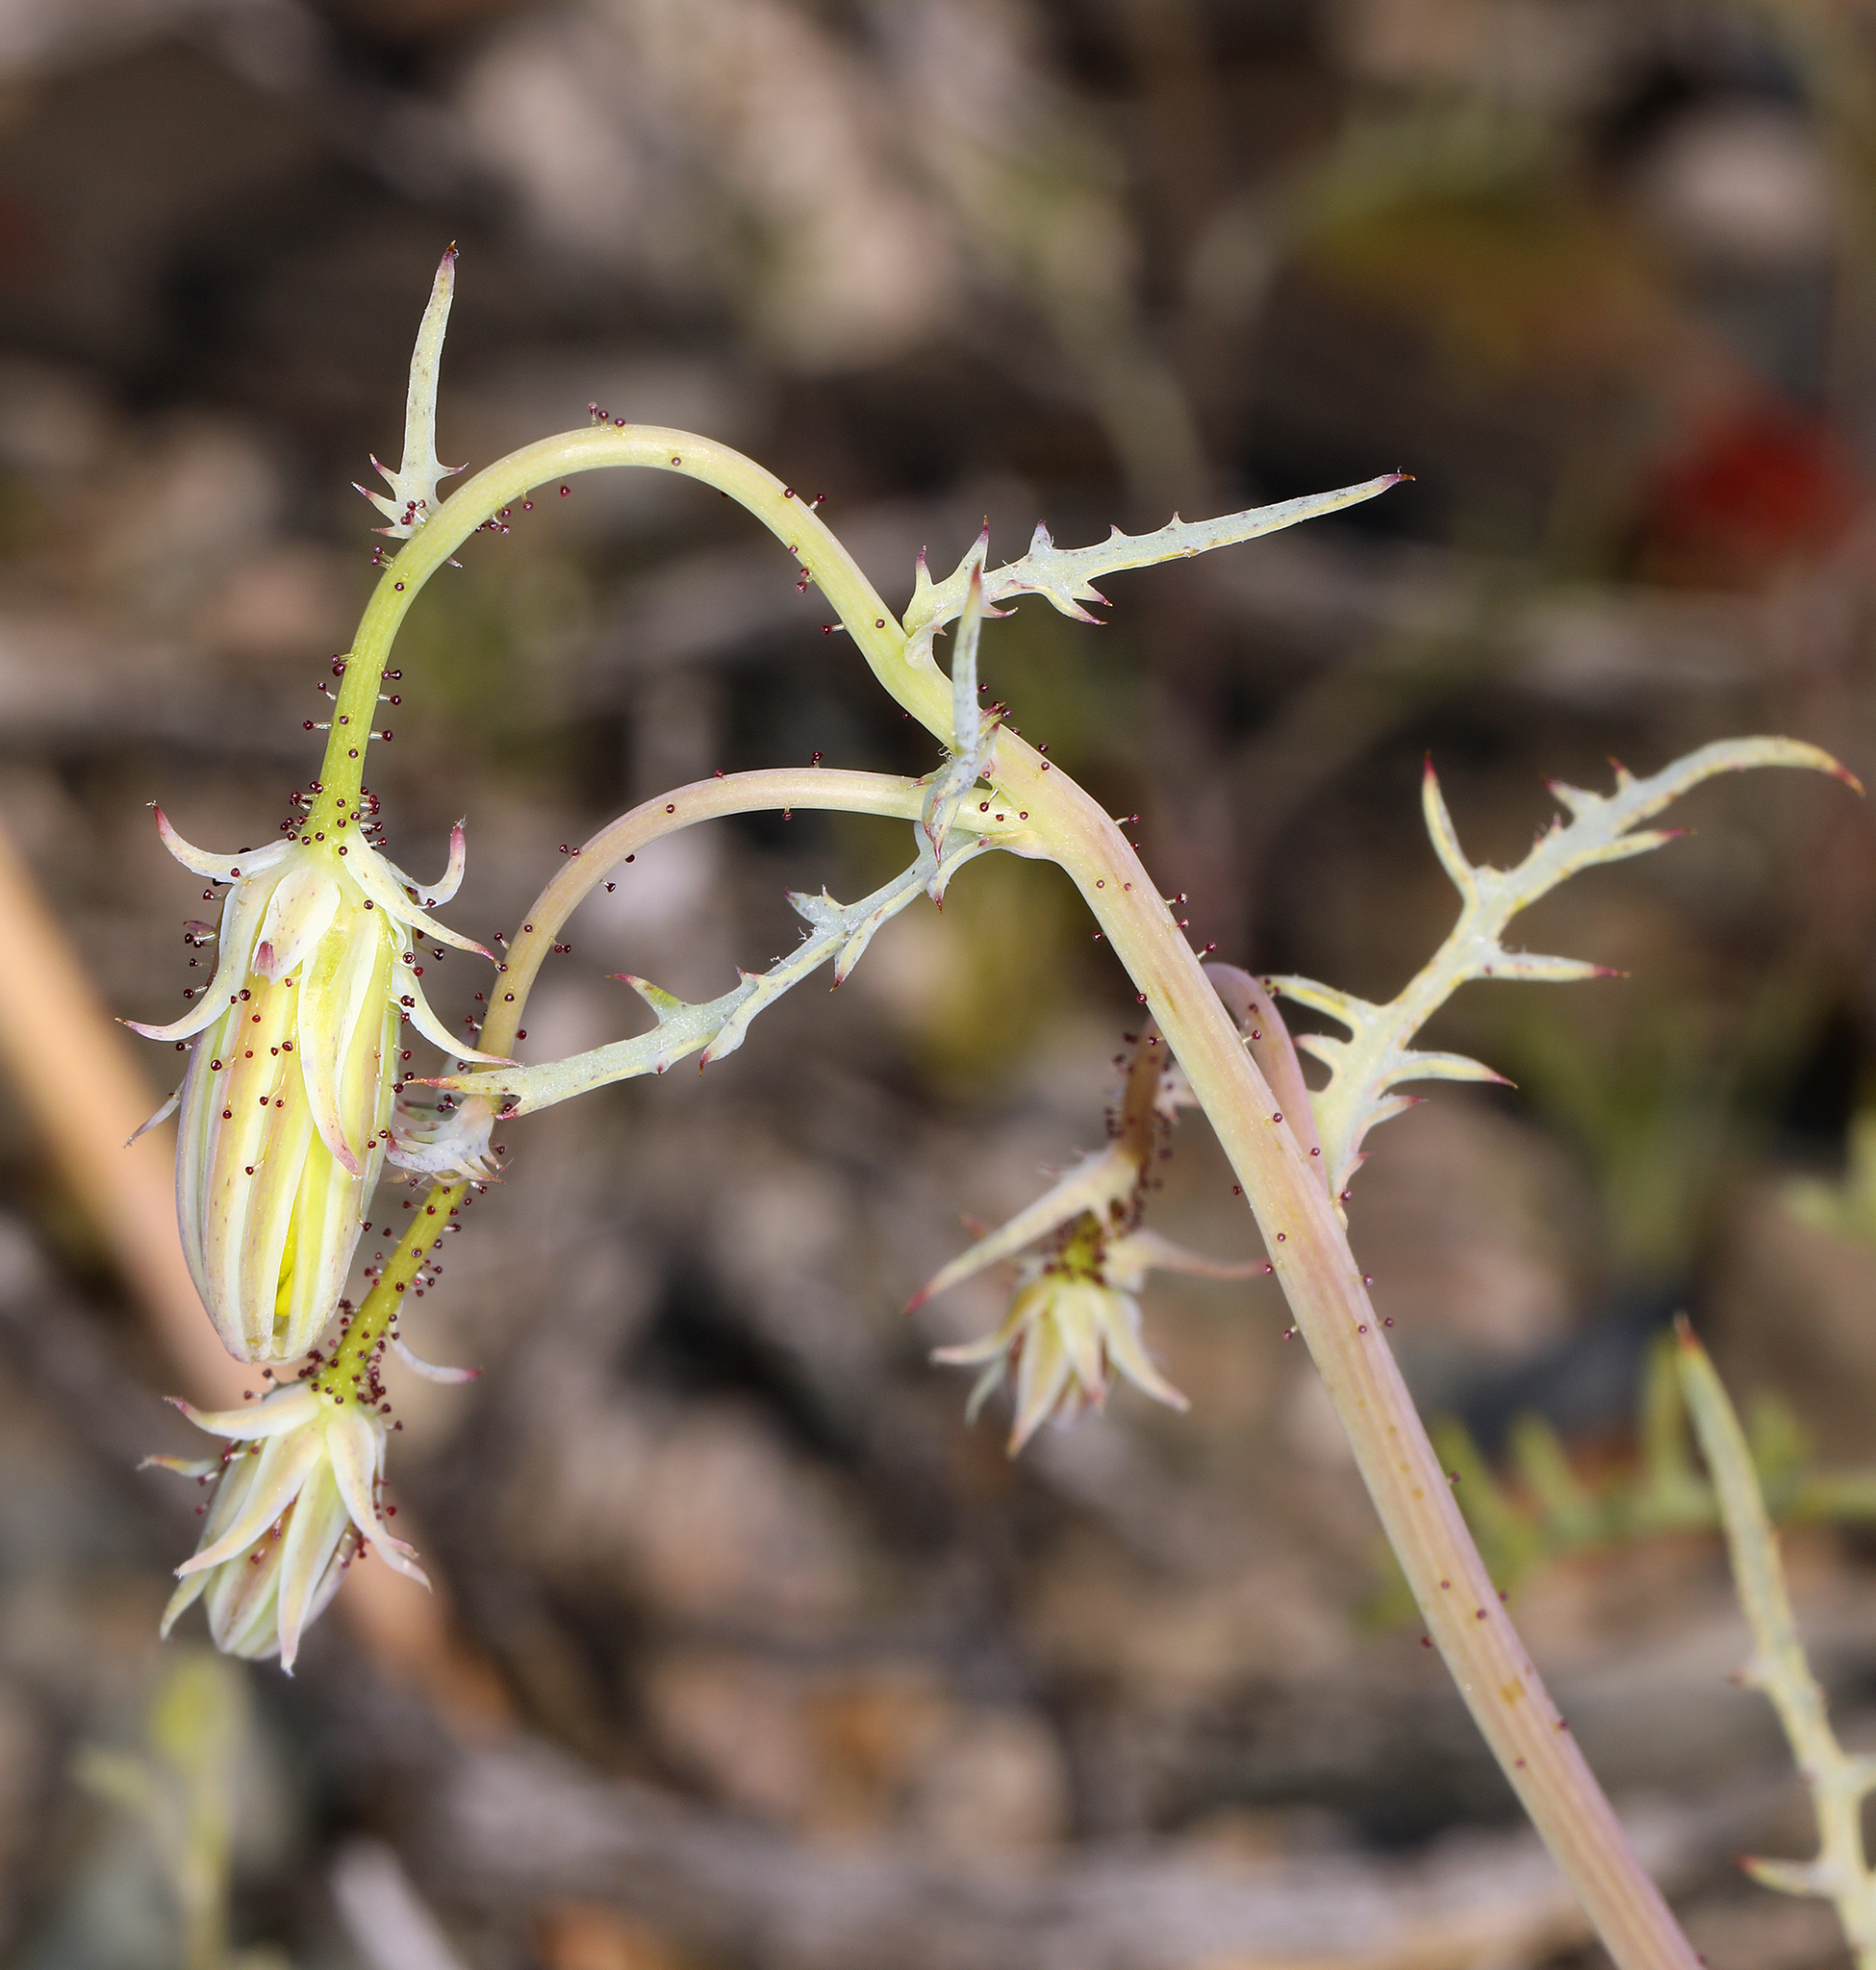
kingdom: Plantae
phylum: Tracheophyta
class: Magnoliopsida
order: Asterales
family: Asteraceae
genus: Calycoseris
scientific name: Calycoseris parryi
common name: Yellow tackstem
